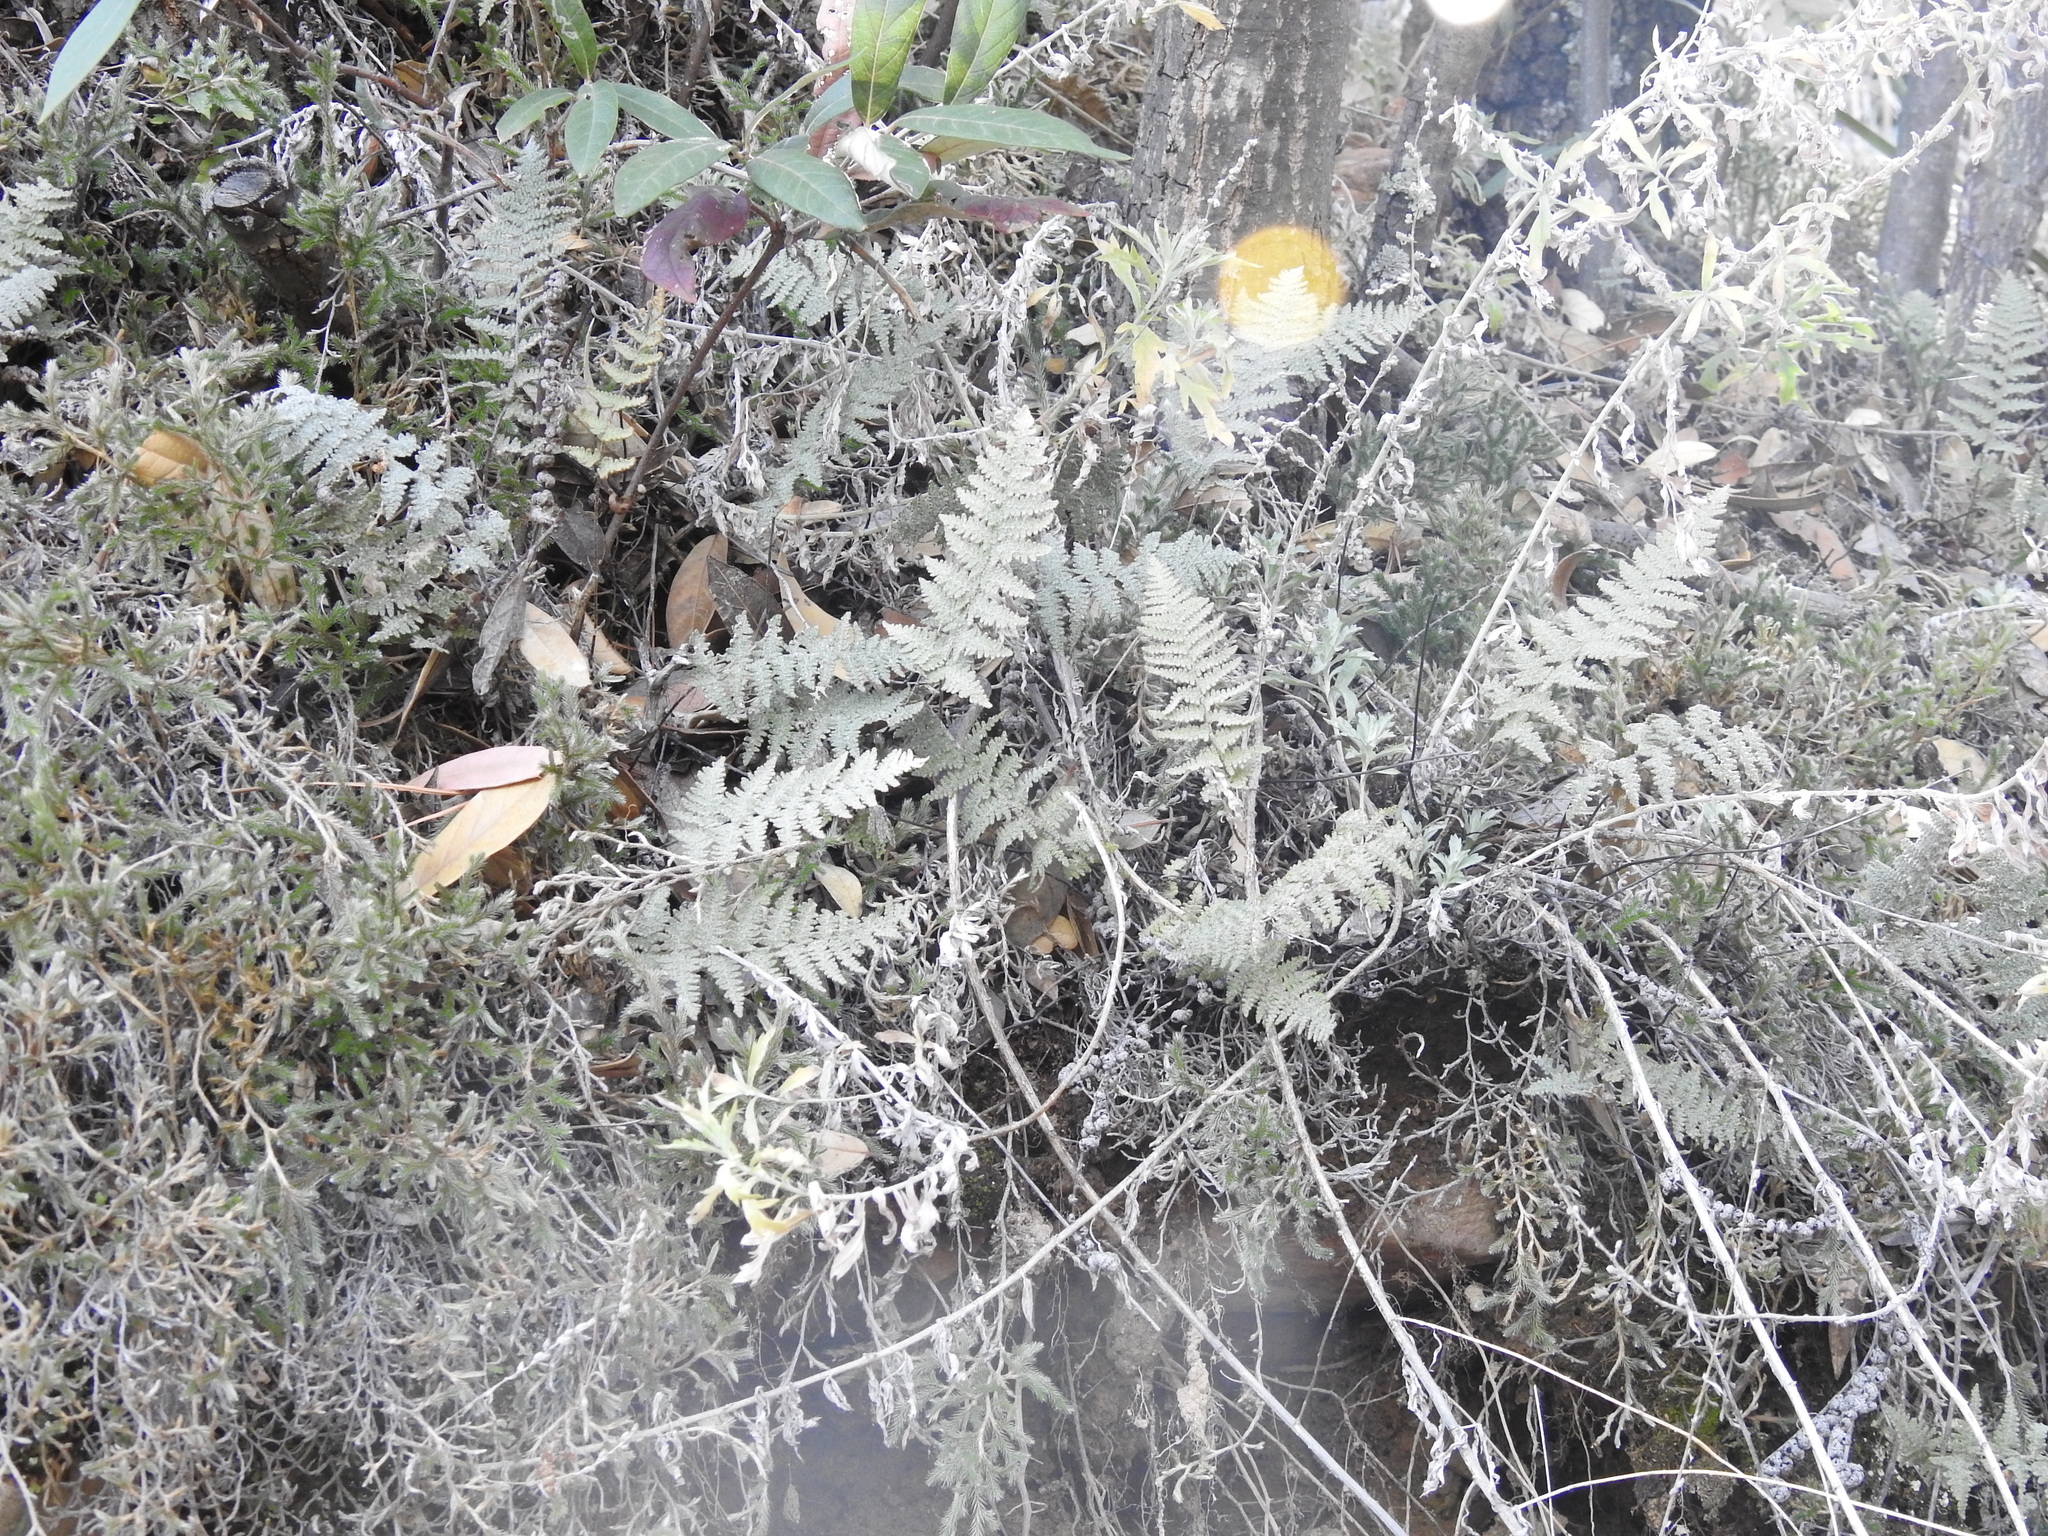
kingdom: Plantae
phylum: Tracheophyta
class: Polypodiopsida
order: Polypodiales
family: Pteridaceae
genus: Myriopteris
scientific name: Myriopteris lindheimeri
